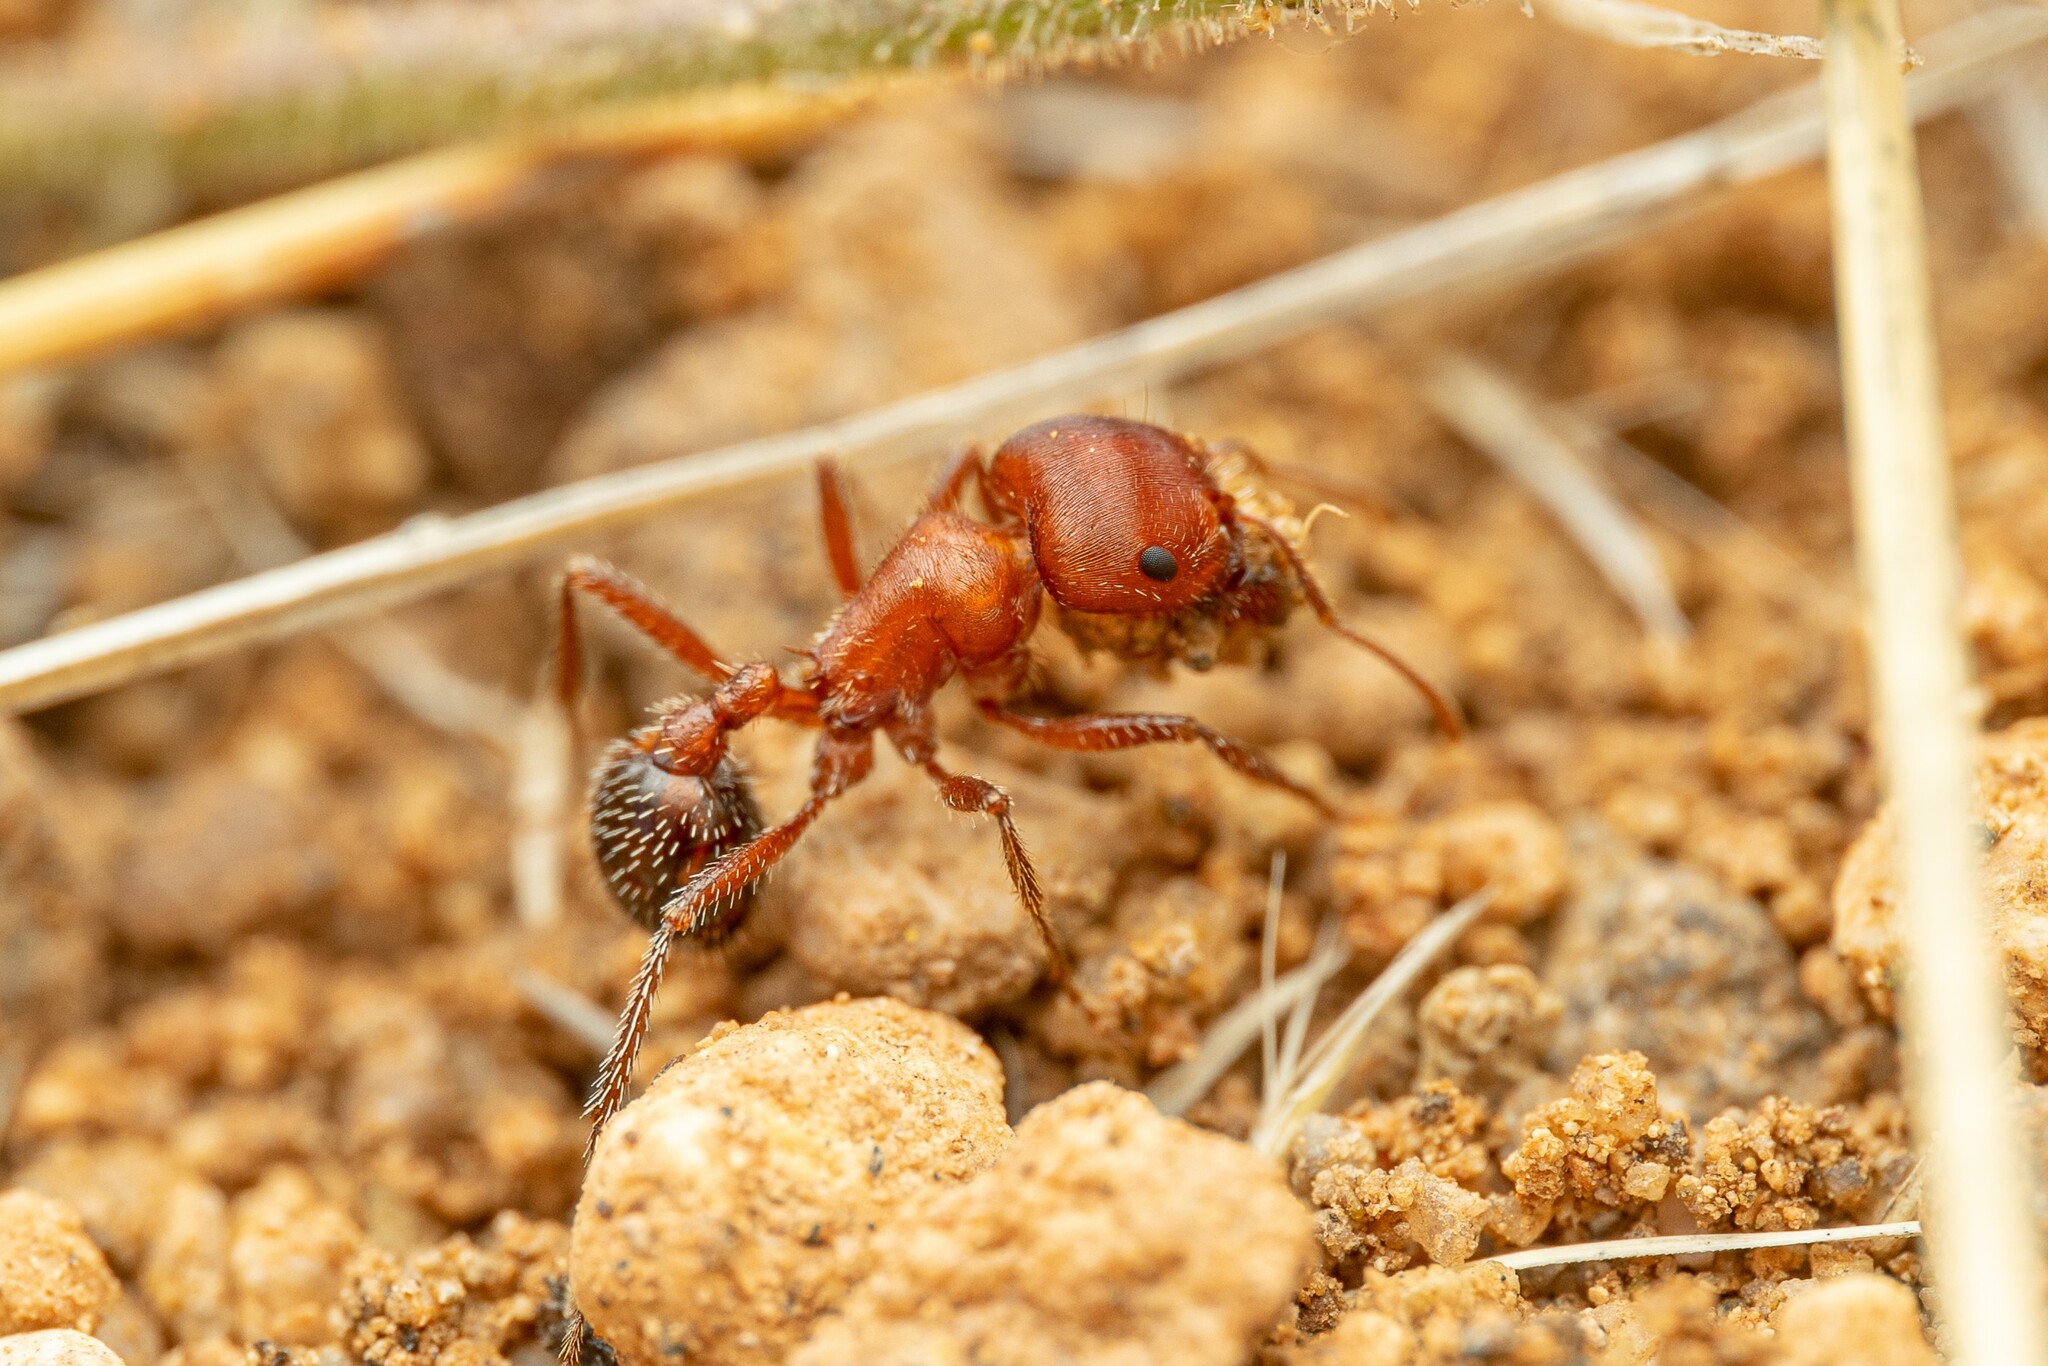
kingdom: Animalia
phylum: Arthropoda
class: Insecta
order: Hymenoptera
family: Formicidae
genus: Pogonomyrmex
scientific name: Pogonomyrmex bicolor
